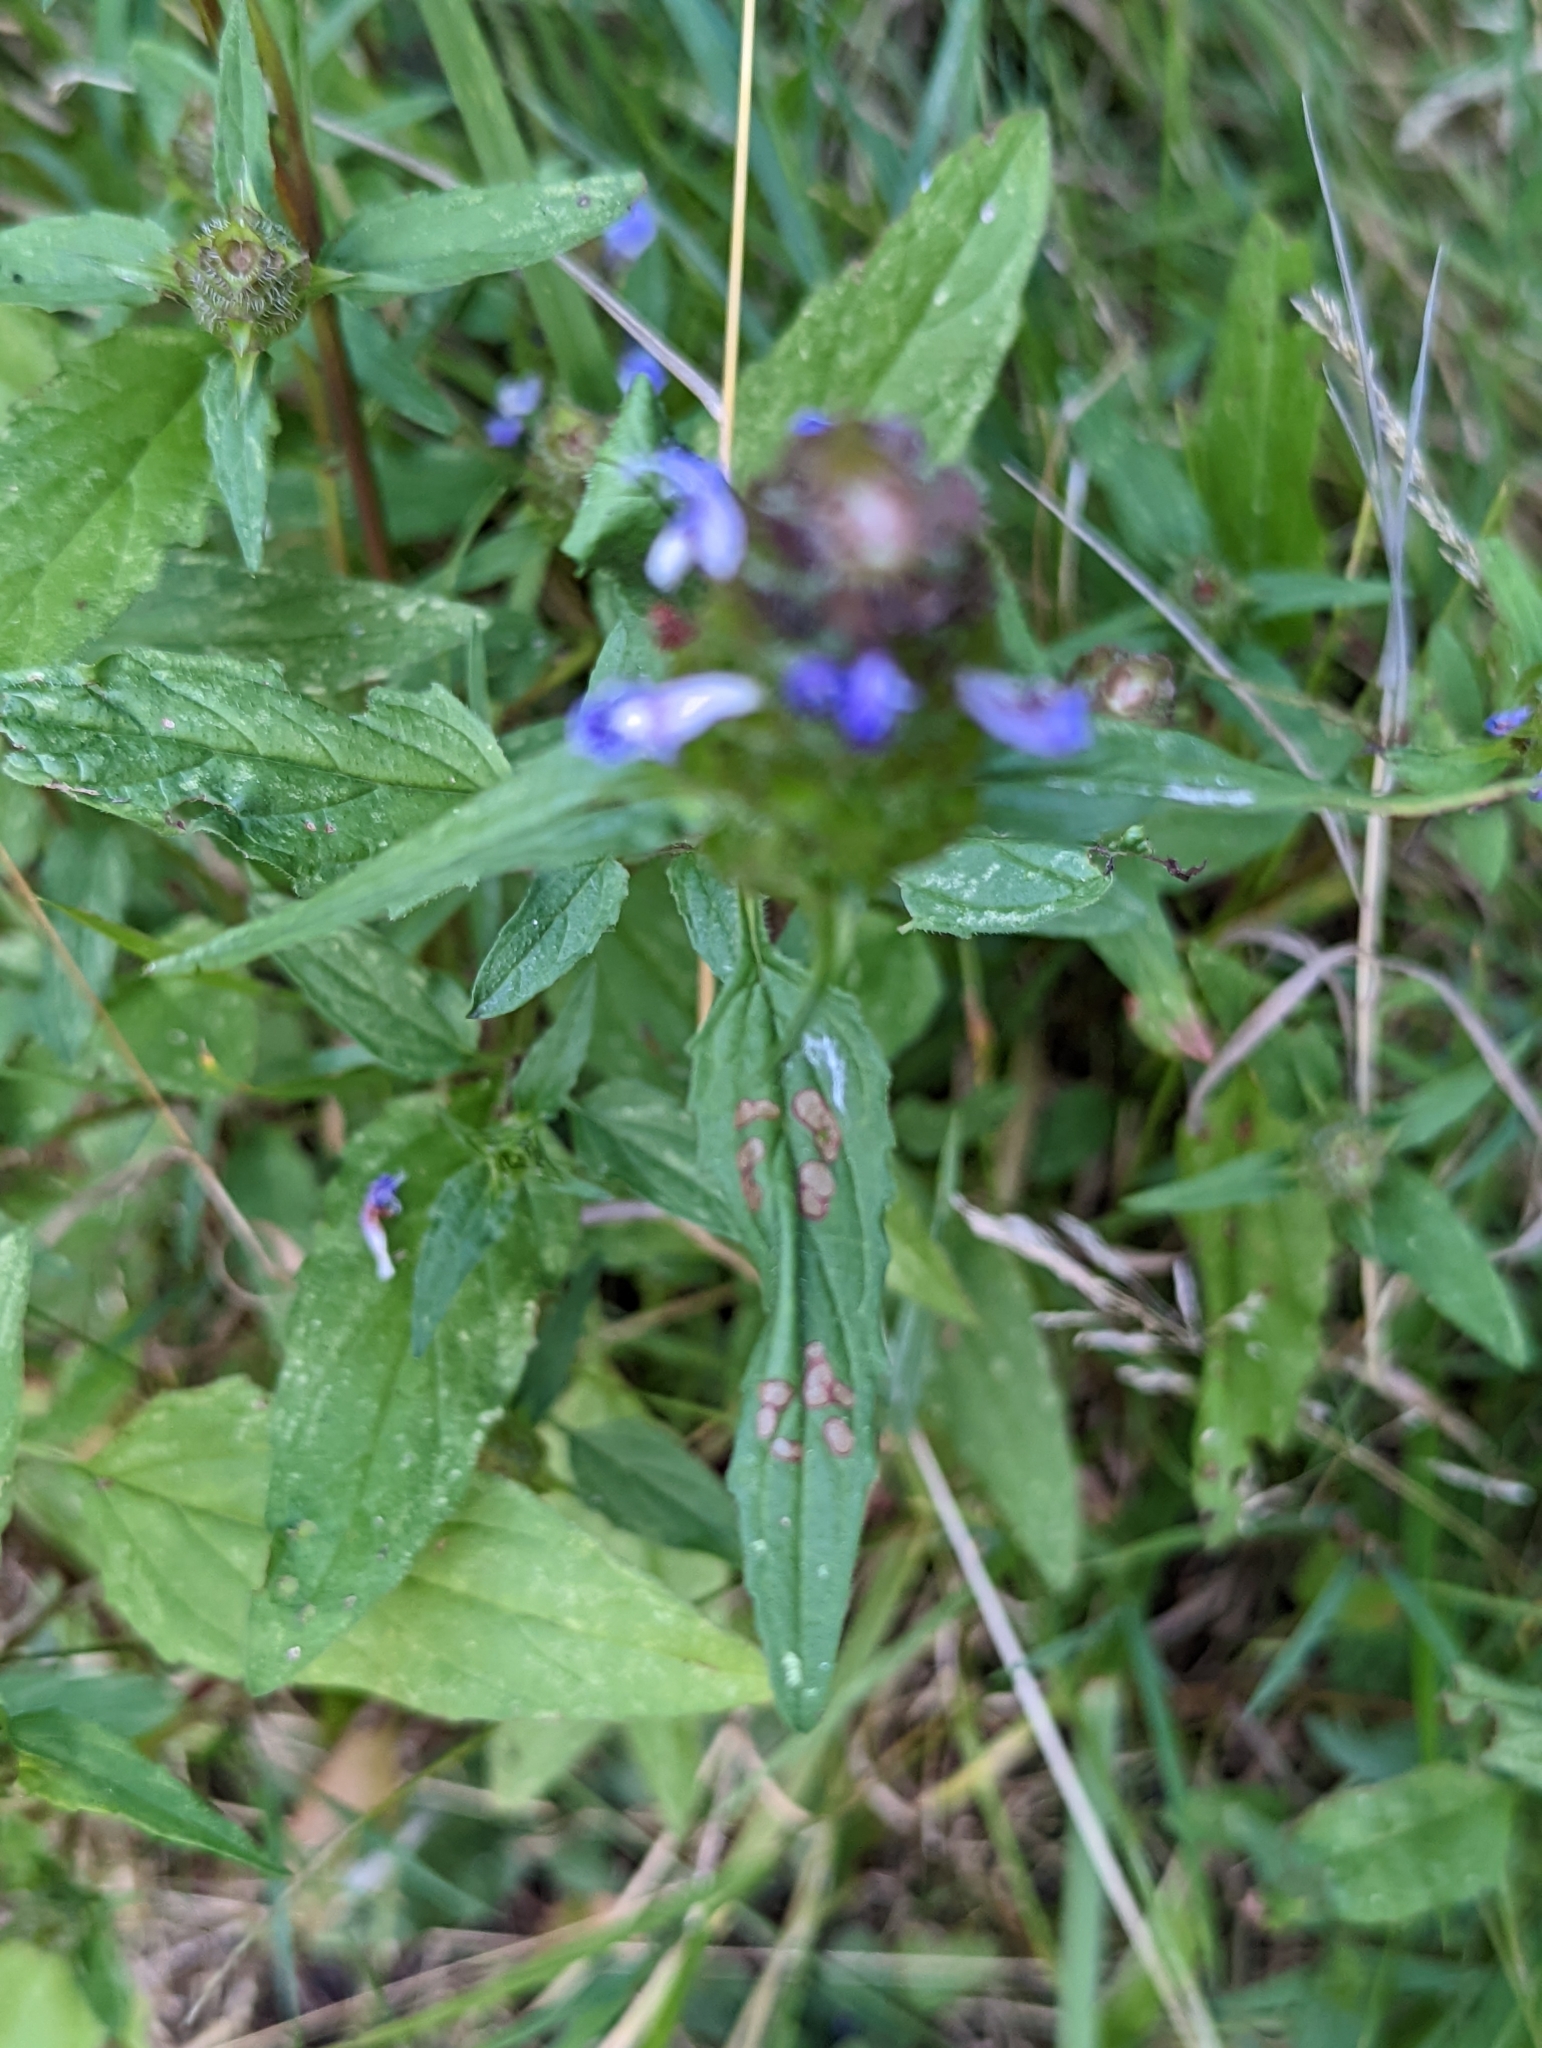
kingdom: Plantae
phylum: Tracheophyta
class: Magnoliopsida
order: Lamiales
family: Lamiaceae
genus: Prunella
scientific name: Prunella vulgaris
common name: Heal-all
